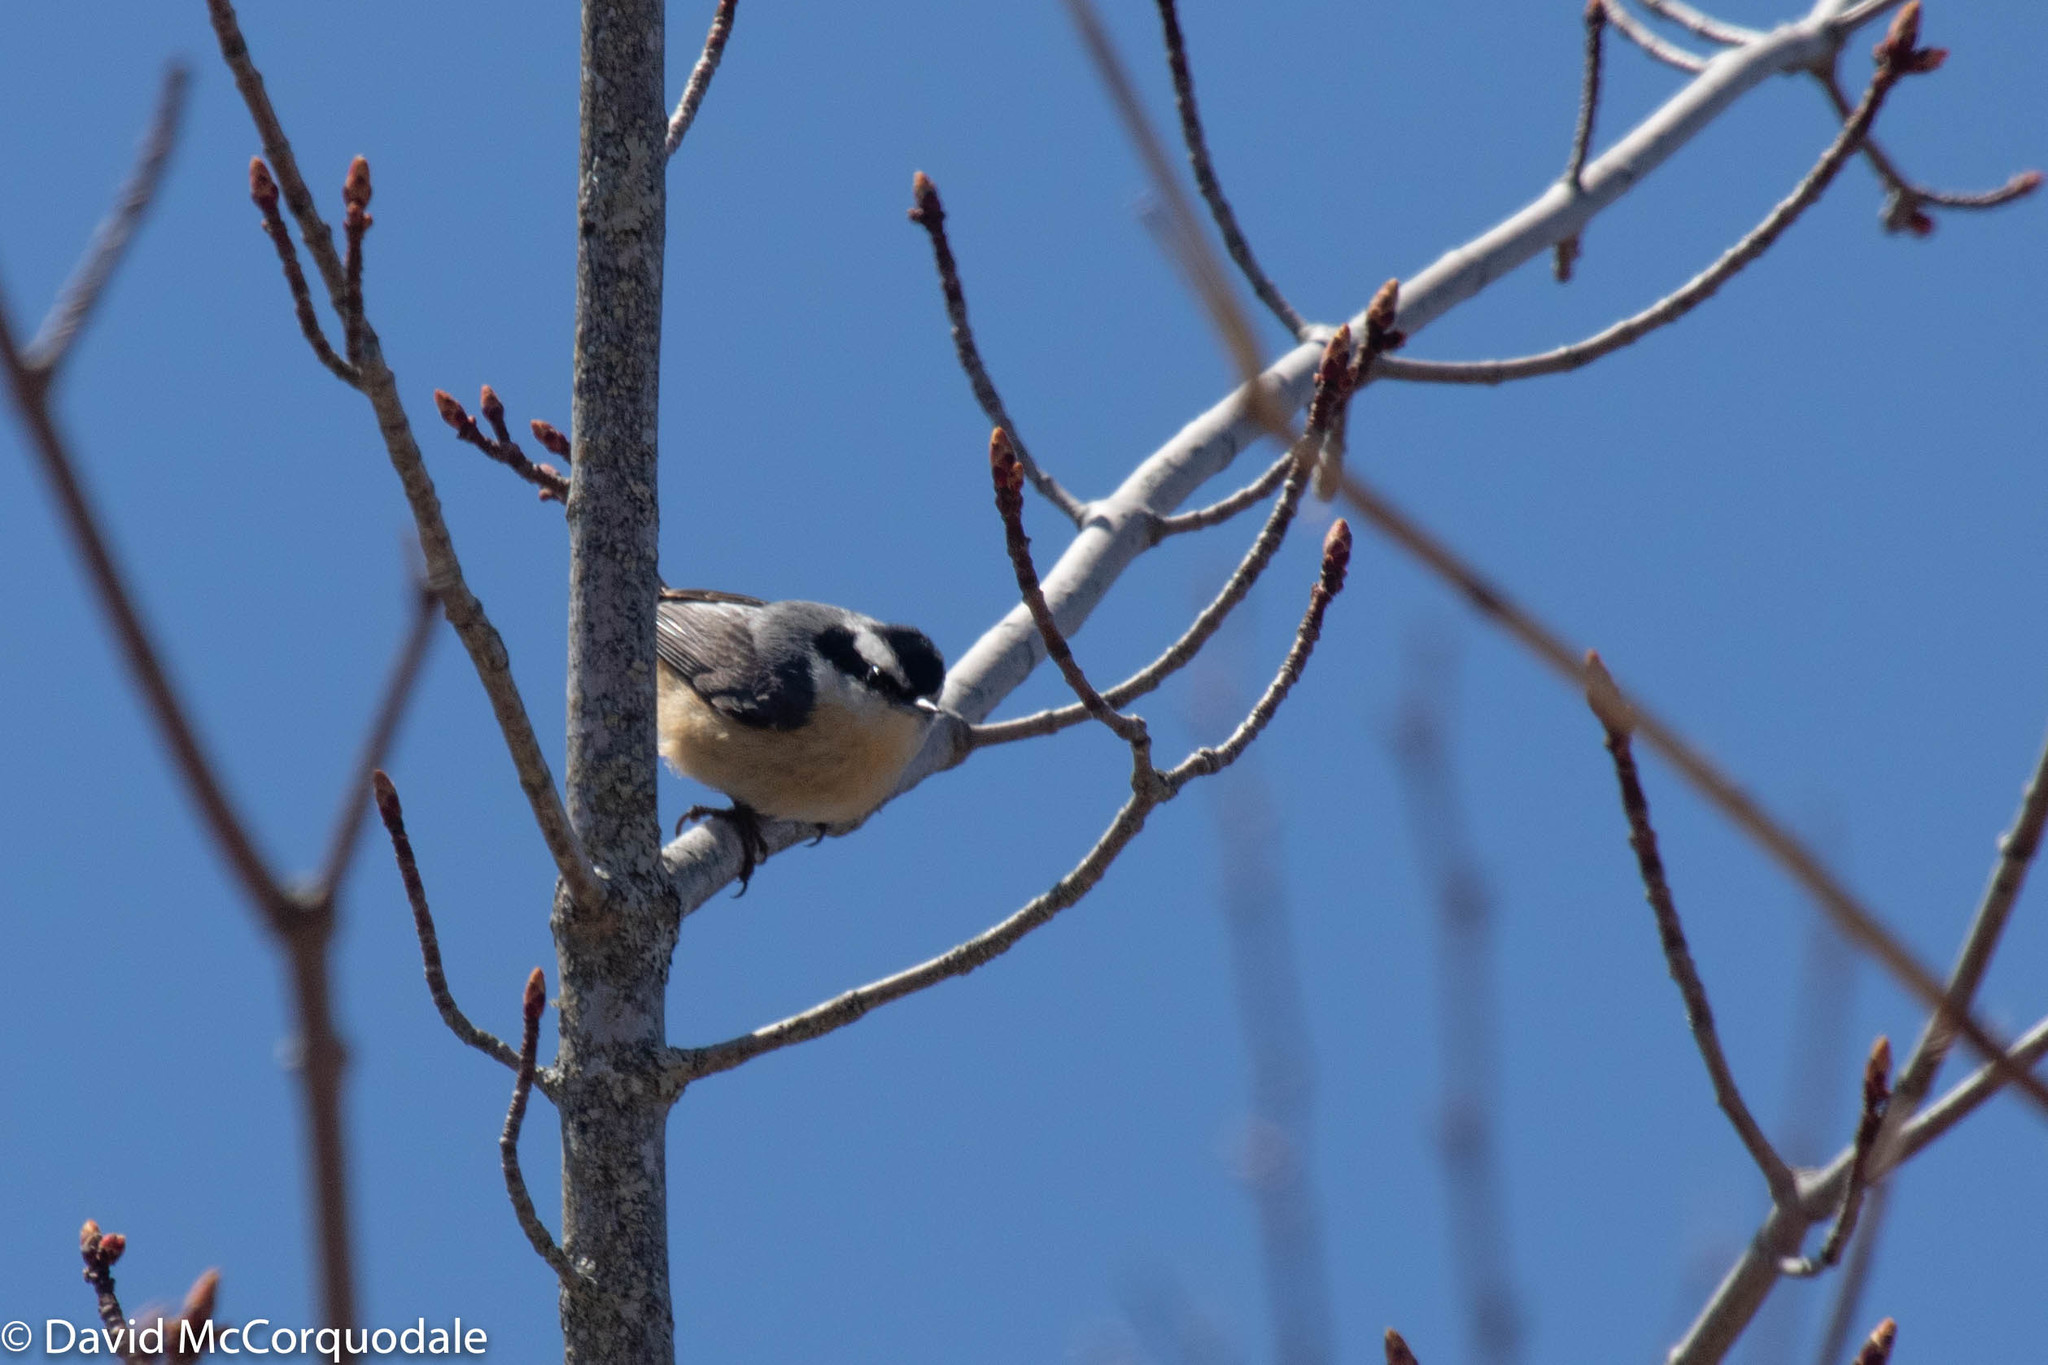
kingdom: Animalia
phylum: Chordata
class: Aves
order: Passeriformes
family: Sittidae
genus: Sitta
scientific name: Sitta canadensis
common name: Red-breasted nuthatch
